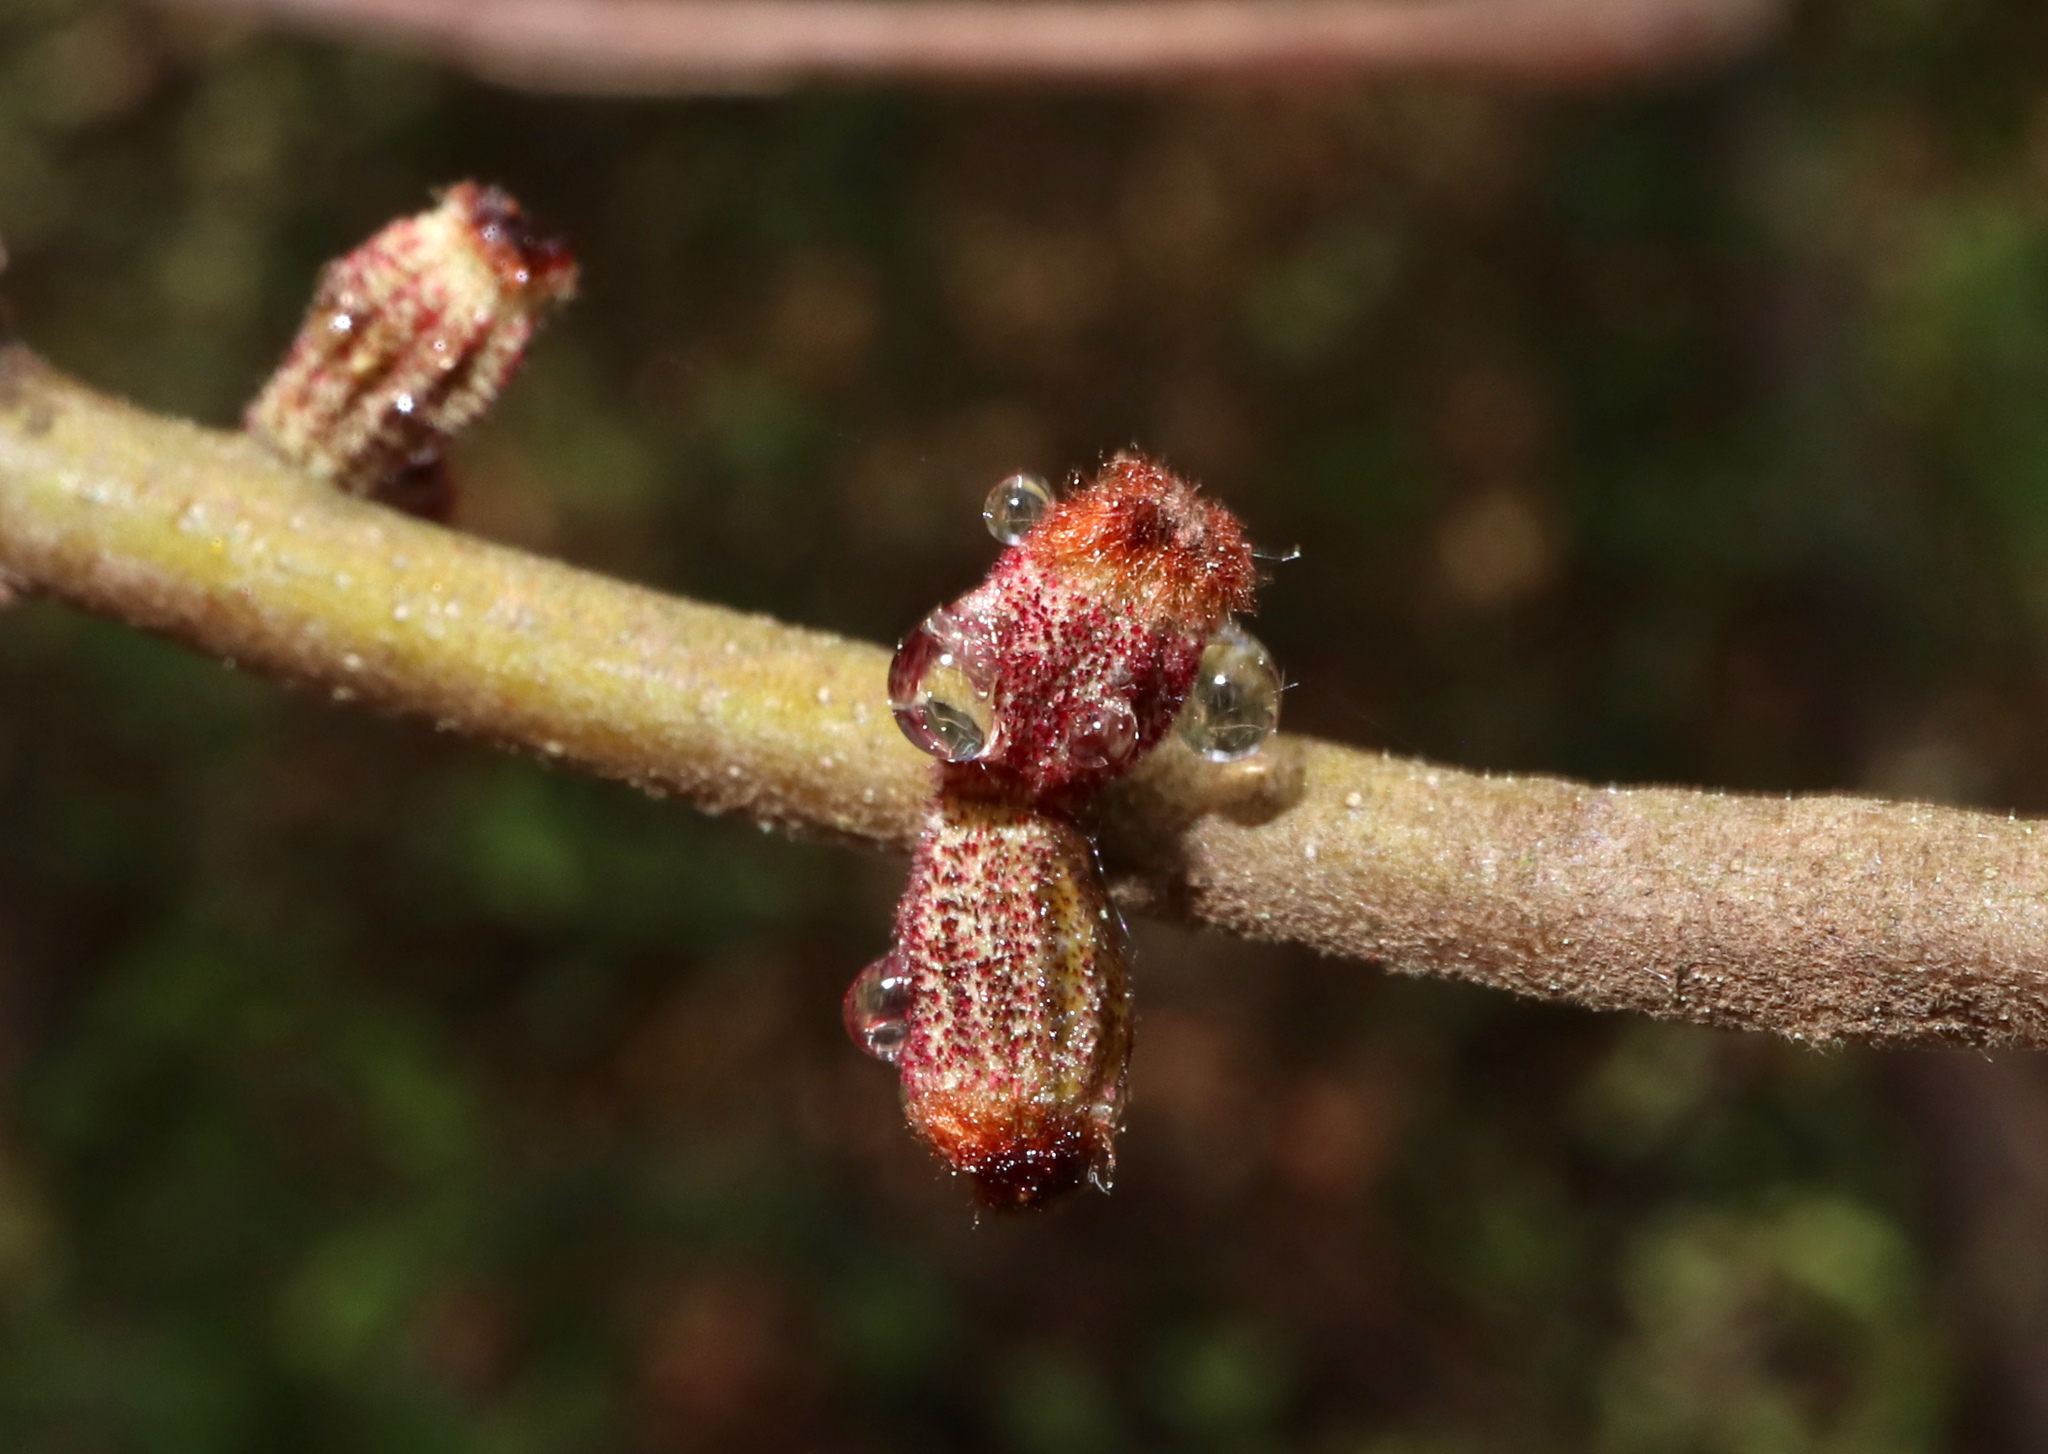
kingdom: Animalia
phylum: Arthropoda
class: Insecta
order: Hymenoptera
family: Cynipidae
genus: Callirhytis
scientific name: Callirhytis
